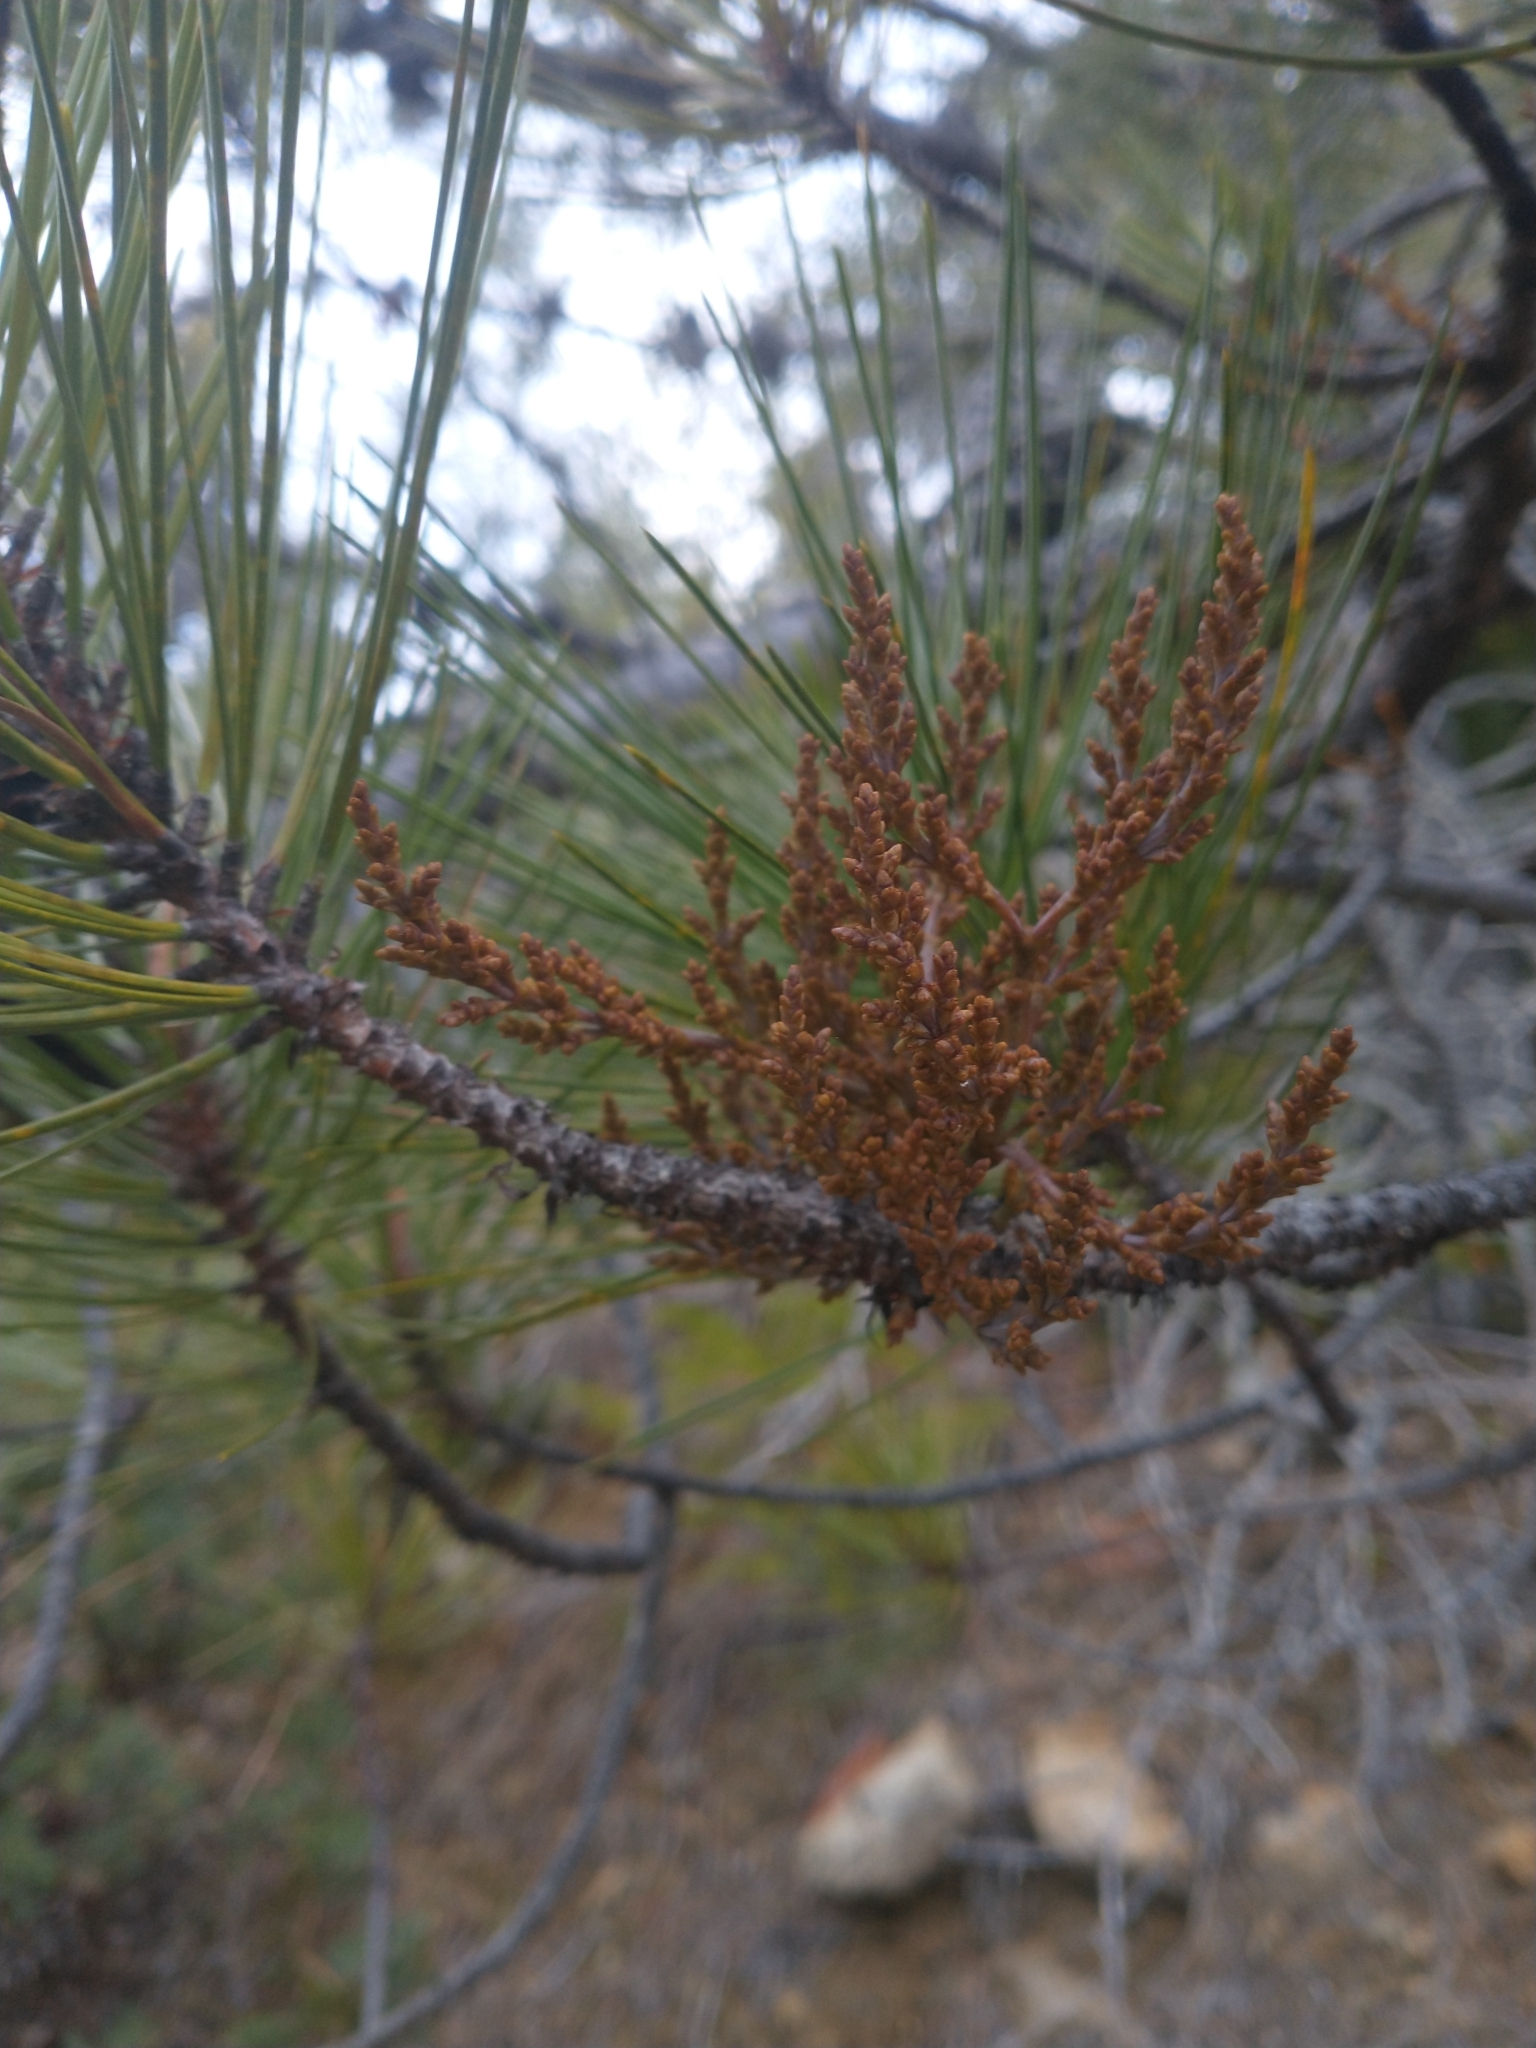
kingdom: Plantae
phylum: Tracheophyta
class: Magnoliopsida
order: Santalales
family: Viscaceae
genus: Arceuthobium
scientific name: Arceuthobium campylopodum
